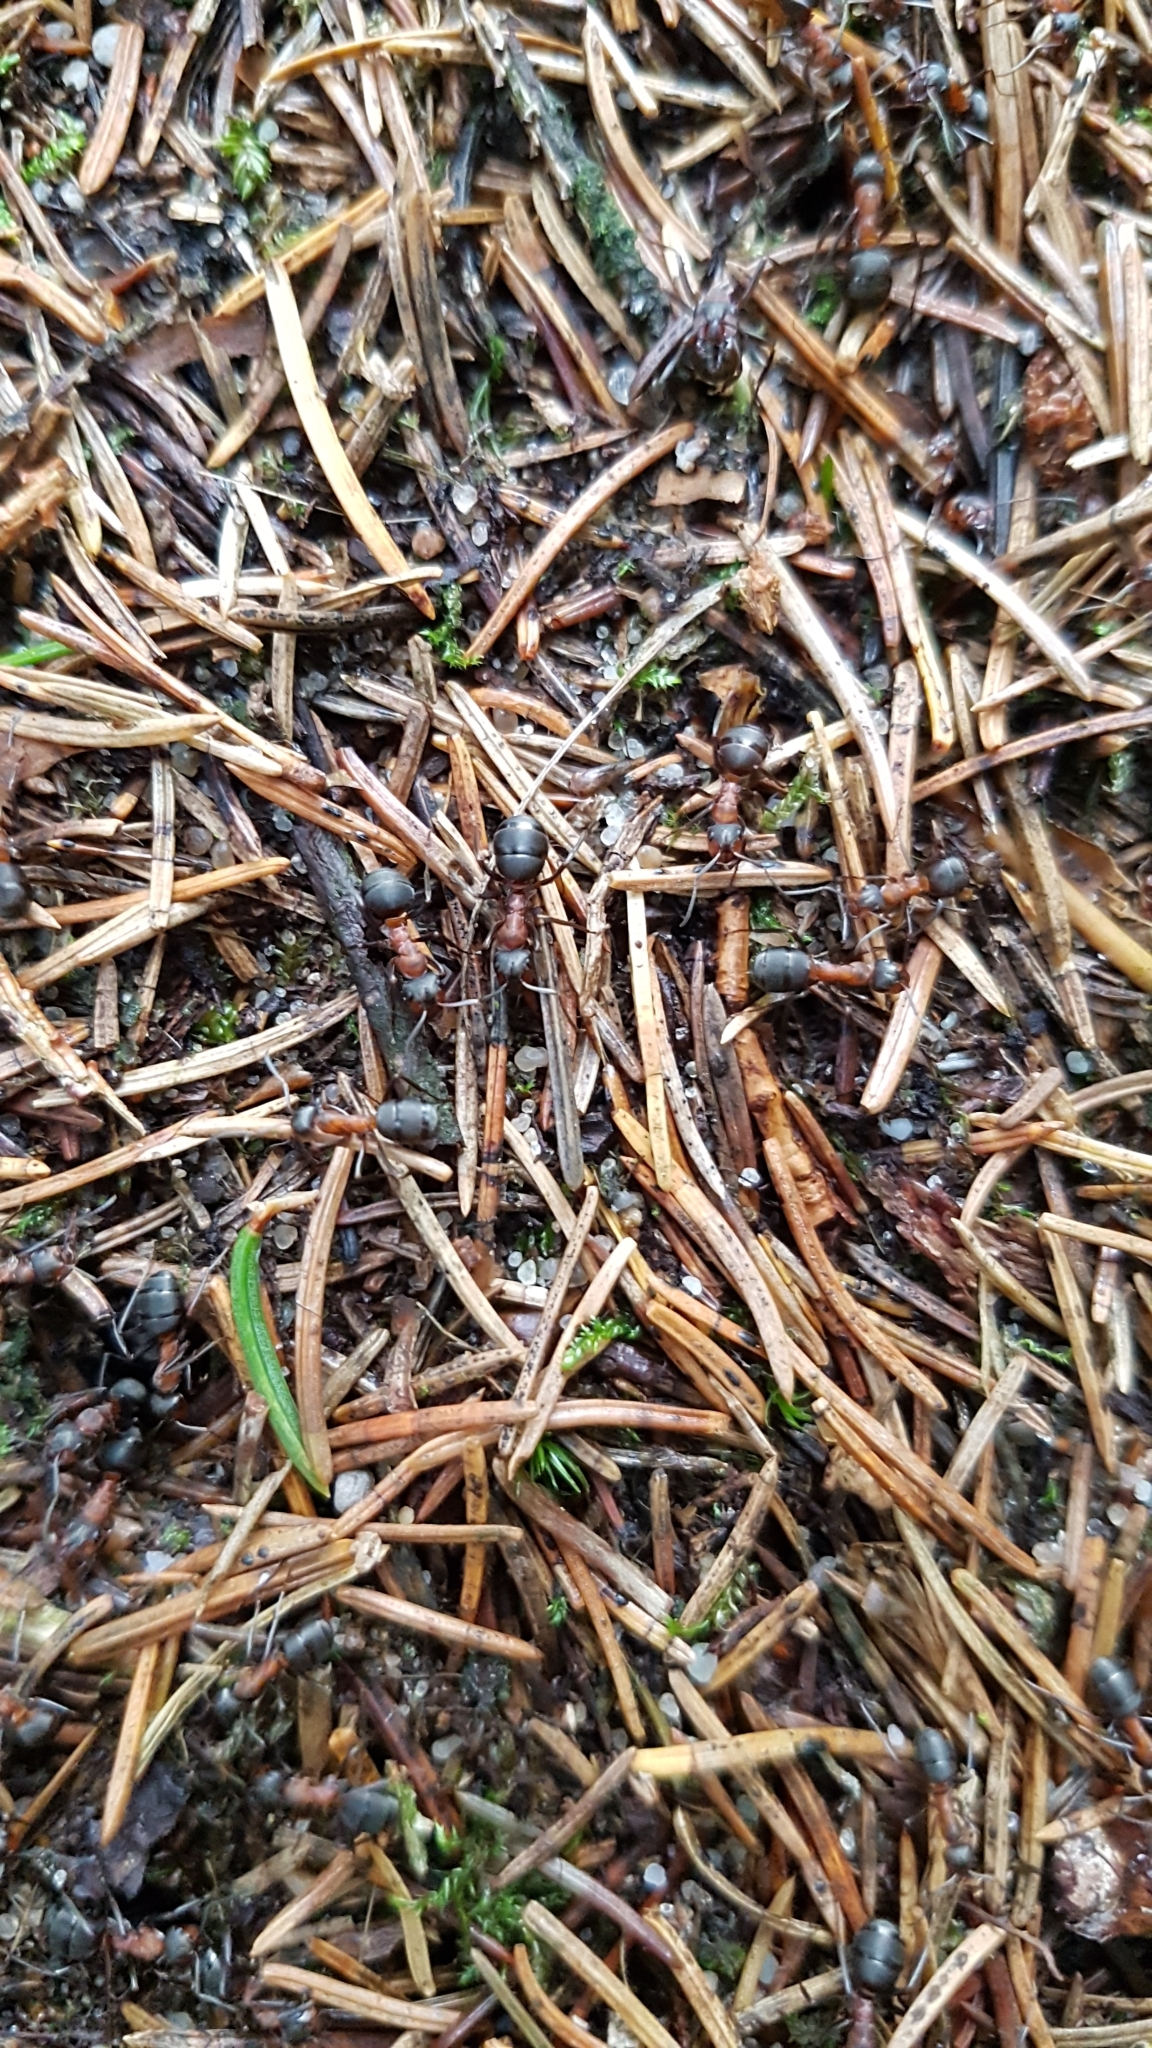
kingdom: Animalia
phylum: Arthropoda
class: Insecta
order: Hymenoptera
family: Formicidae
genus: Formica
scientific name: Formica rufa
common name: Red wood ant
